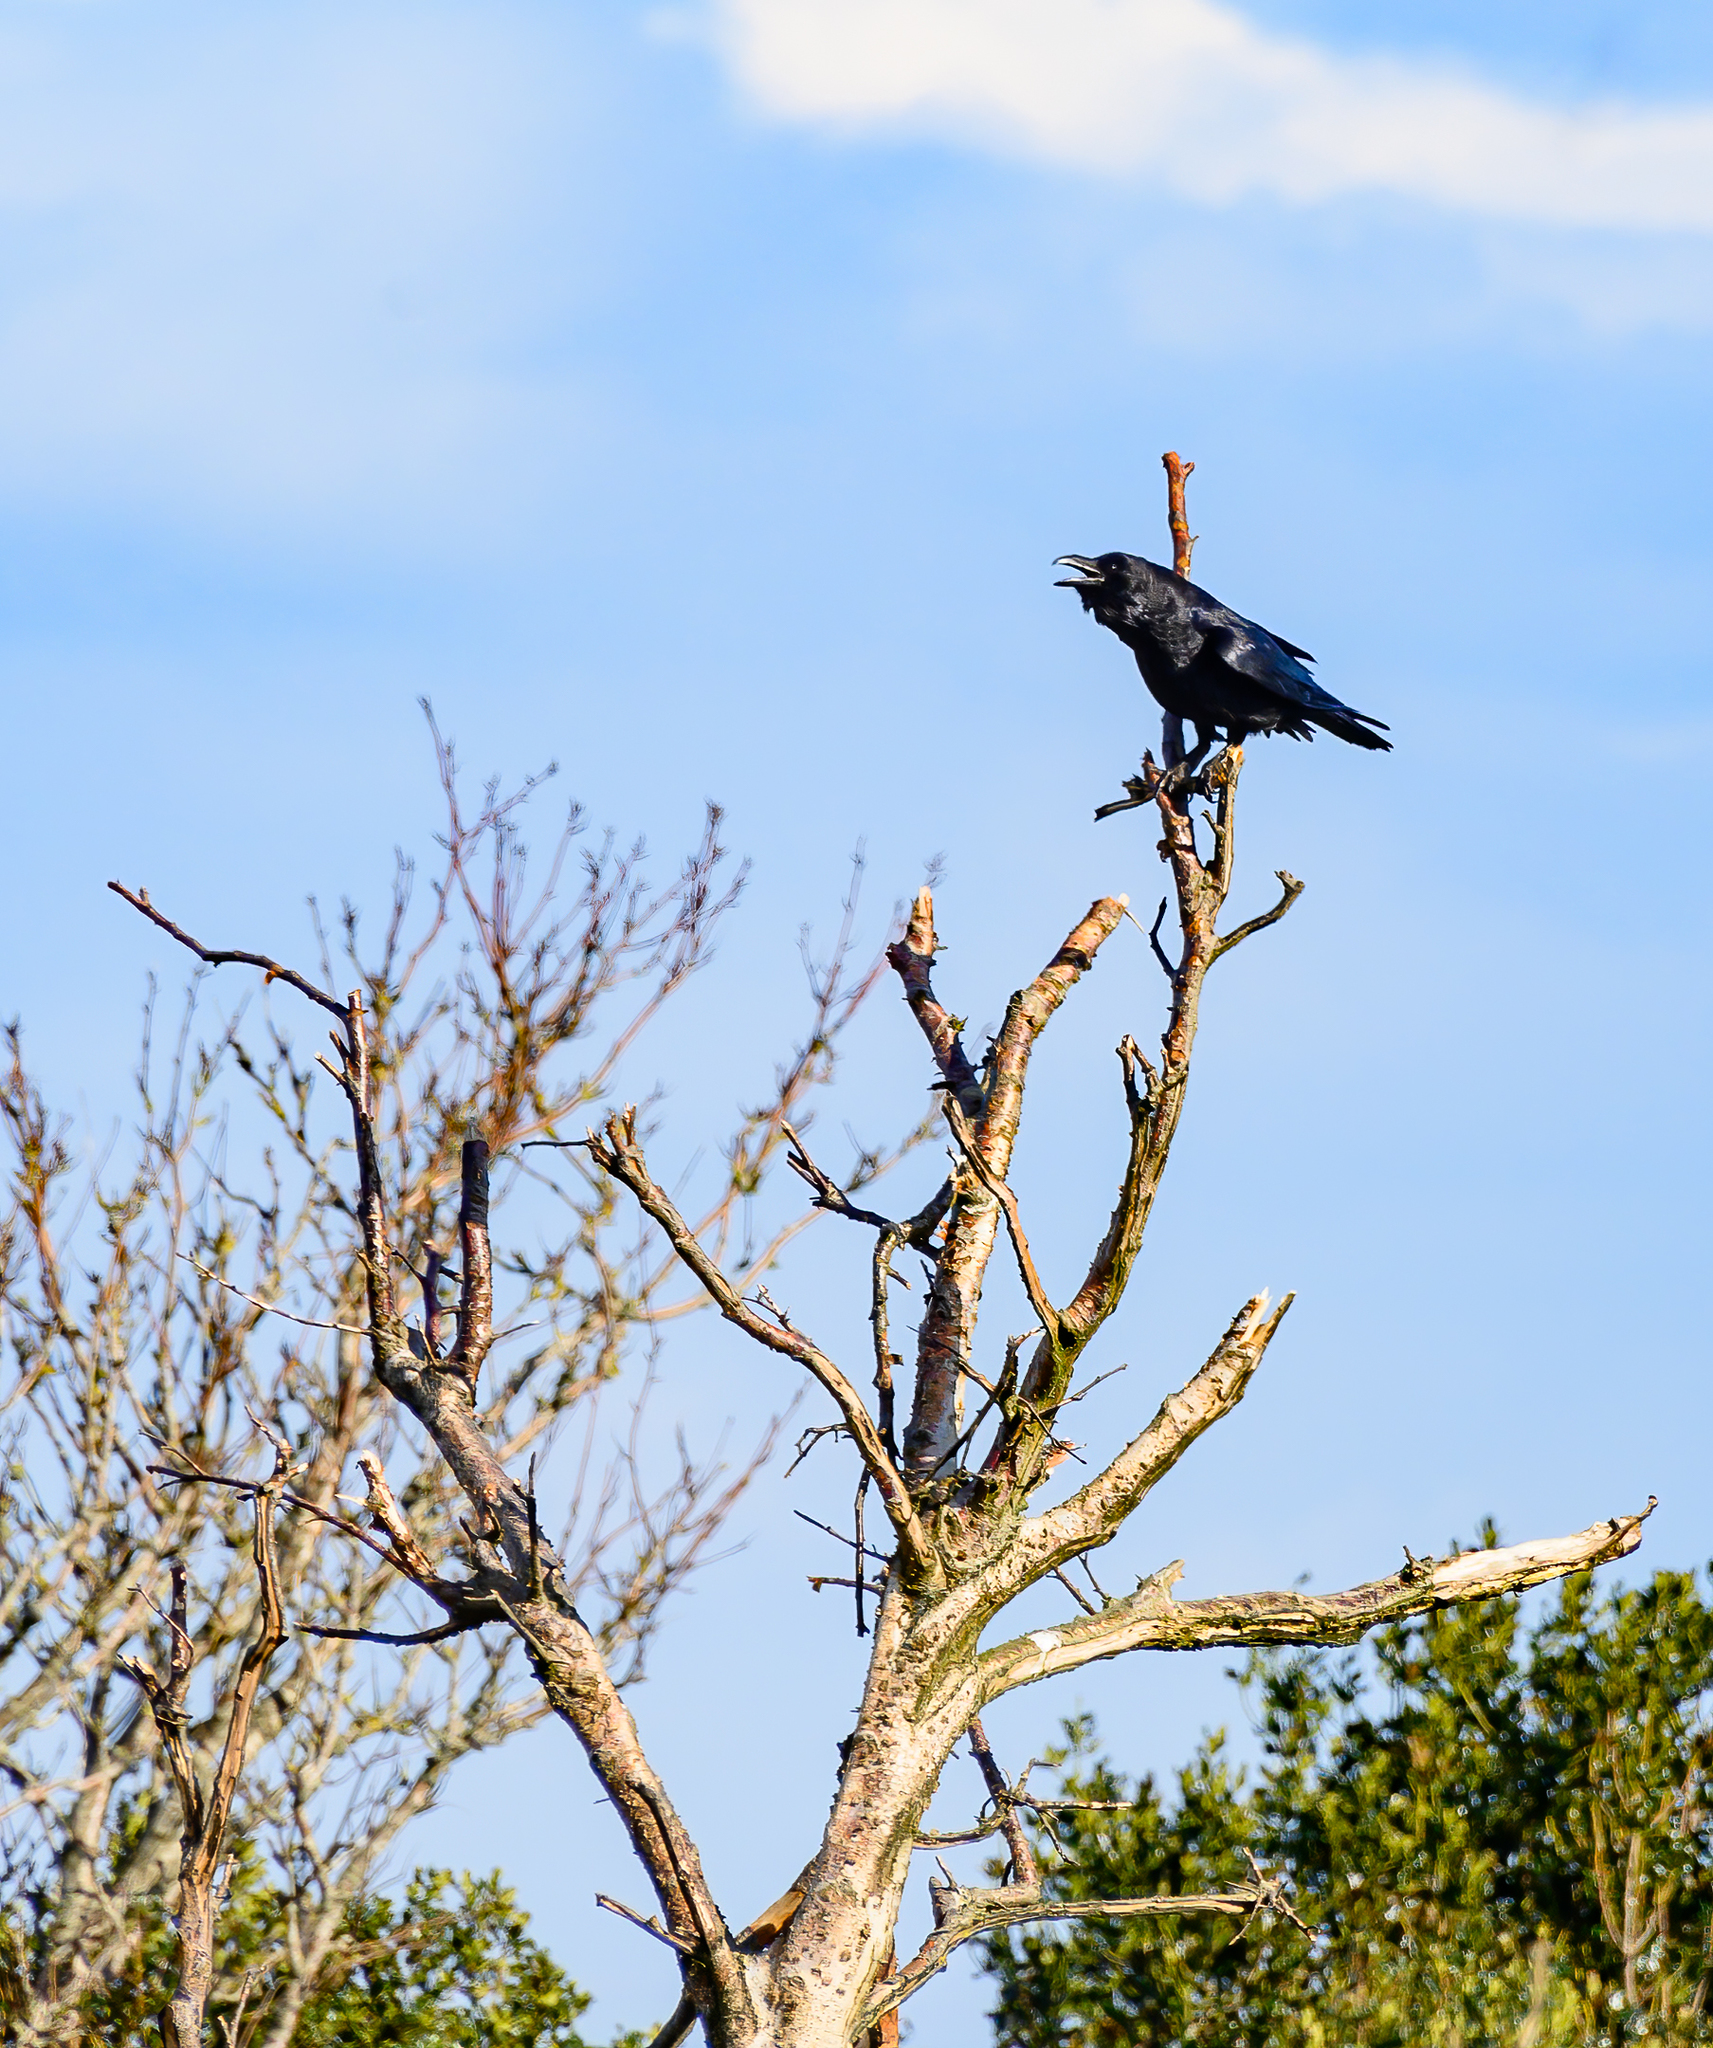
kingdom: Animalia
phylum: Chordata
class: Aves
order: Passeriformes
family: Corvidae
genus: Corvus
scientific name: Corvus corax
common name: Common raven
